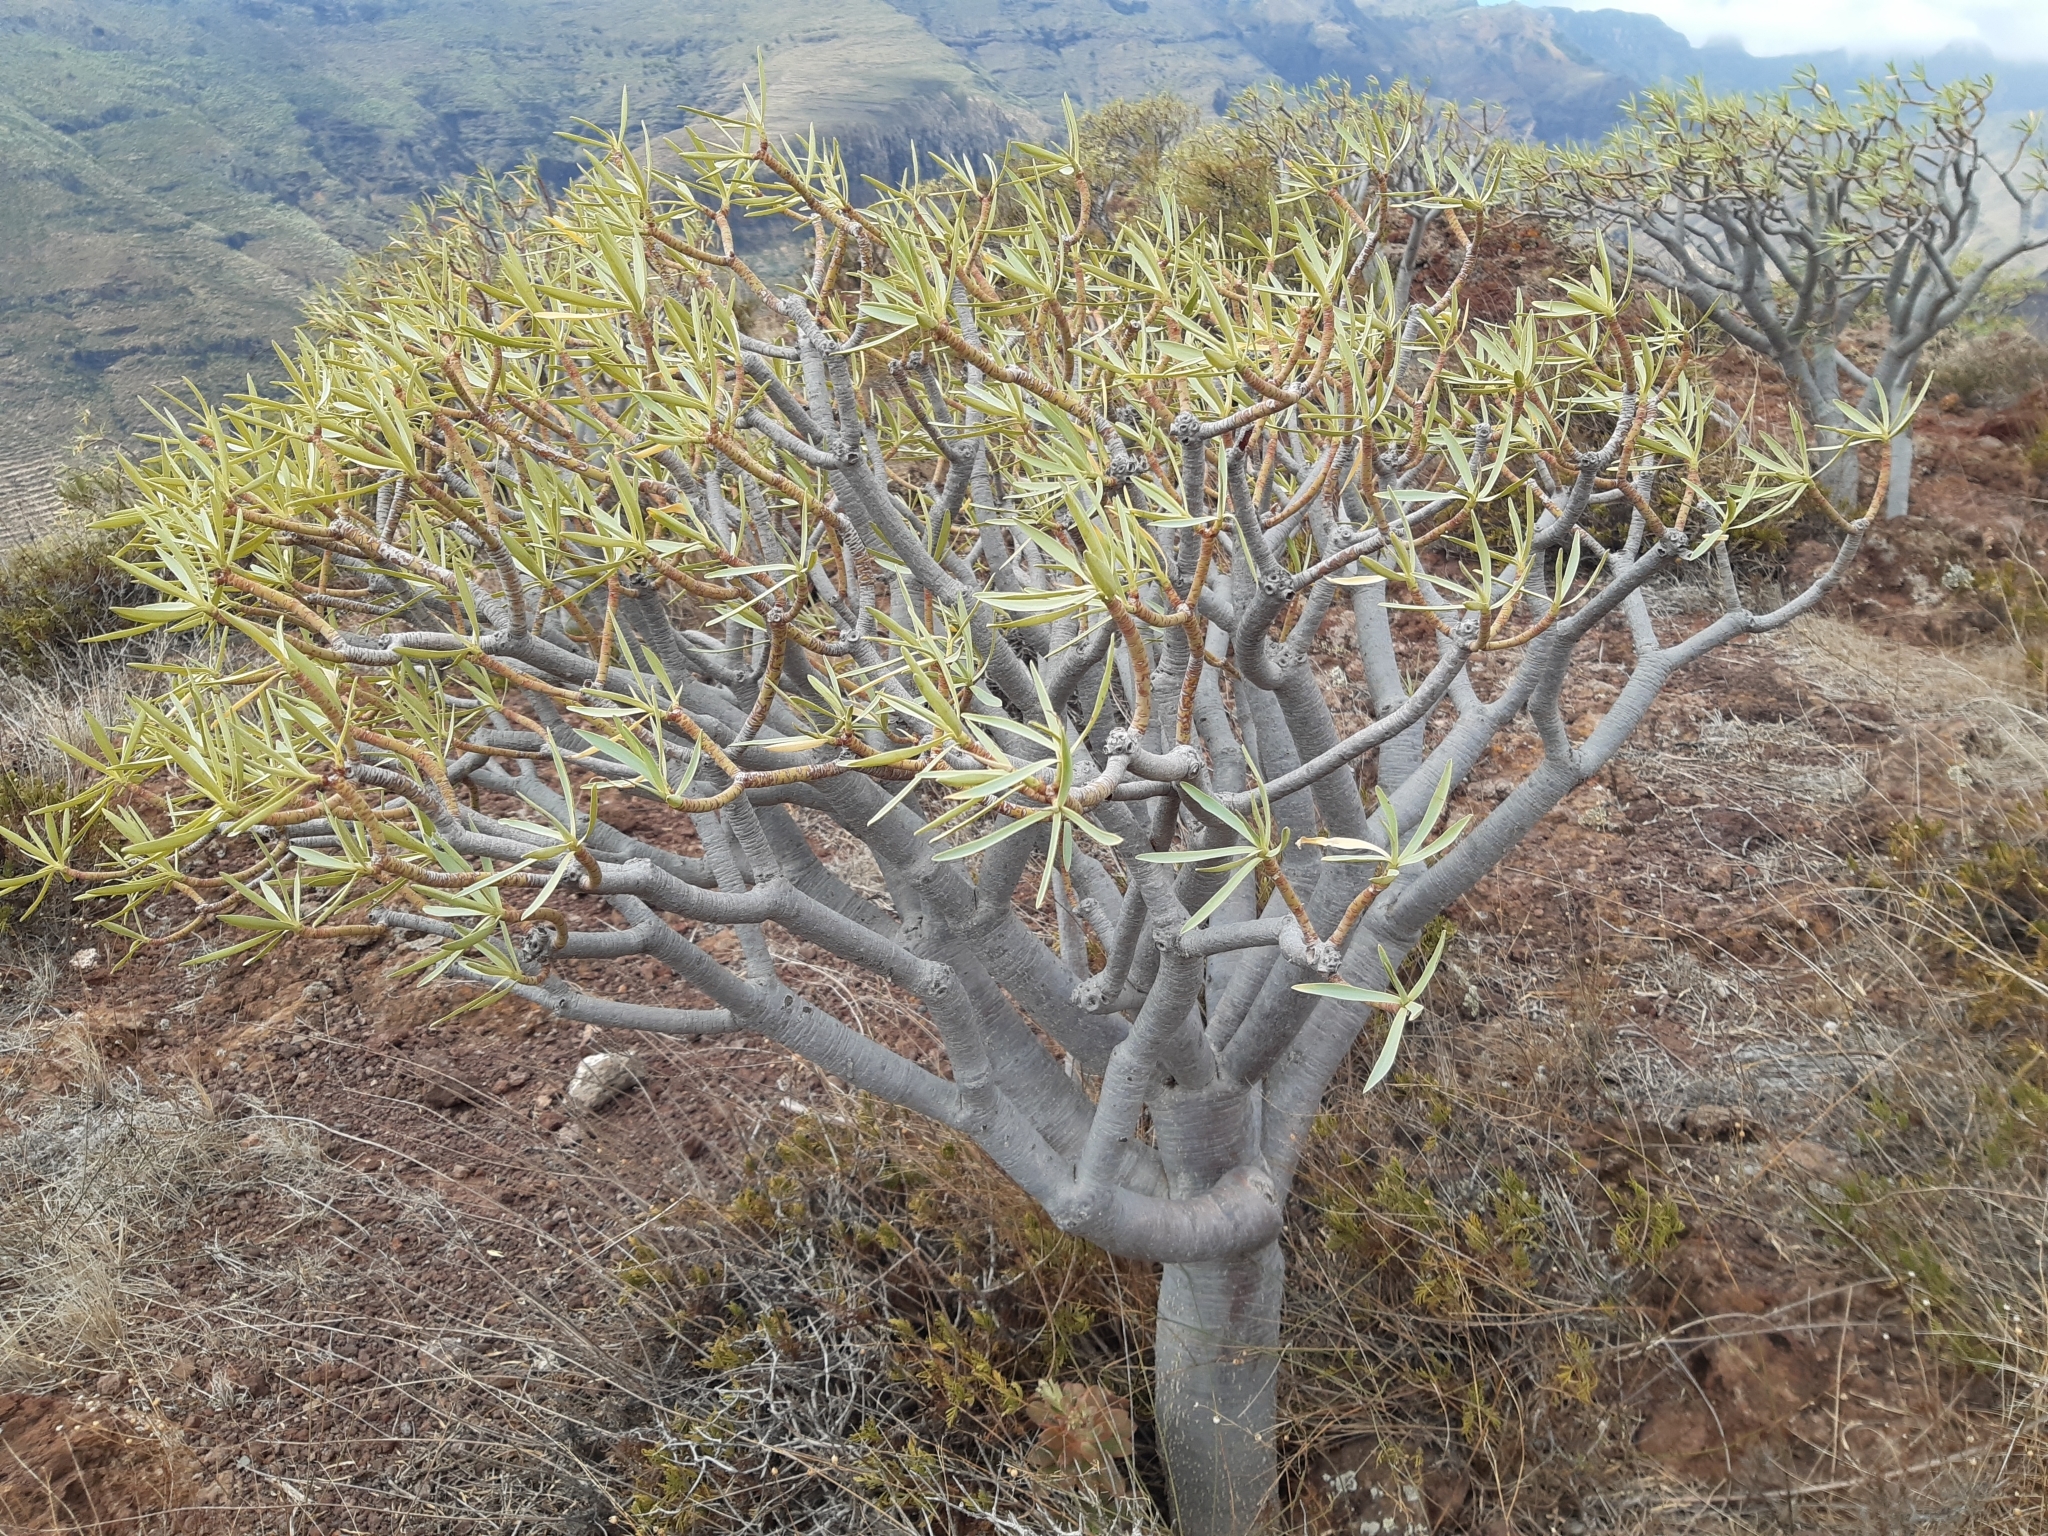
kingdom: Plantae
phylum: Tracheophyta
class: Magnoliopsida
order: Malpighiales
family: Euphorbiaceae
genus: Euphorbia
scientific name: Euphorbia lamarckii
